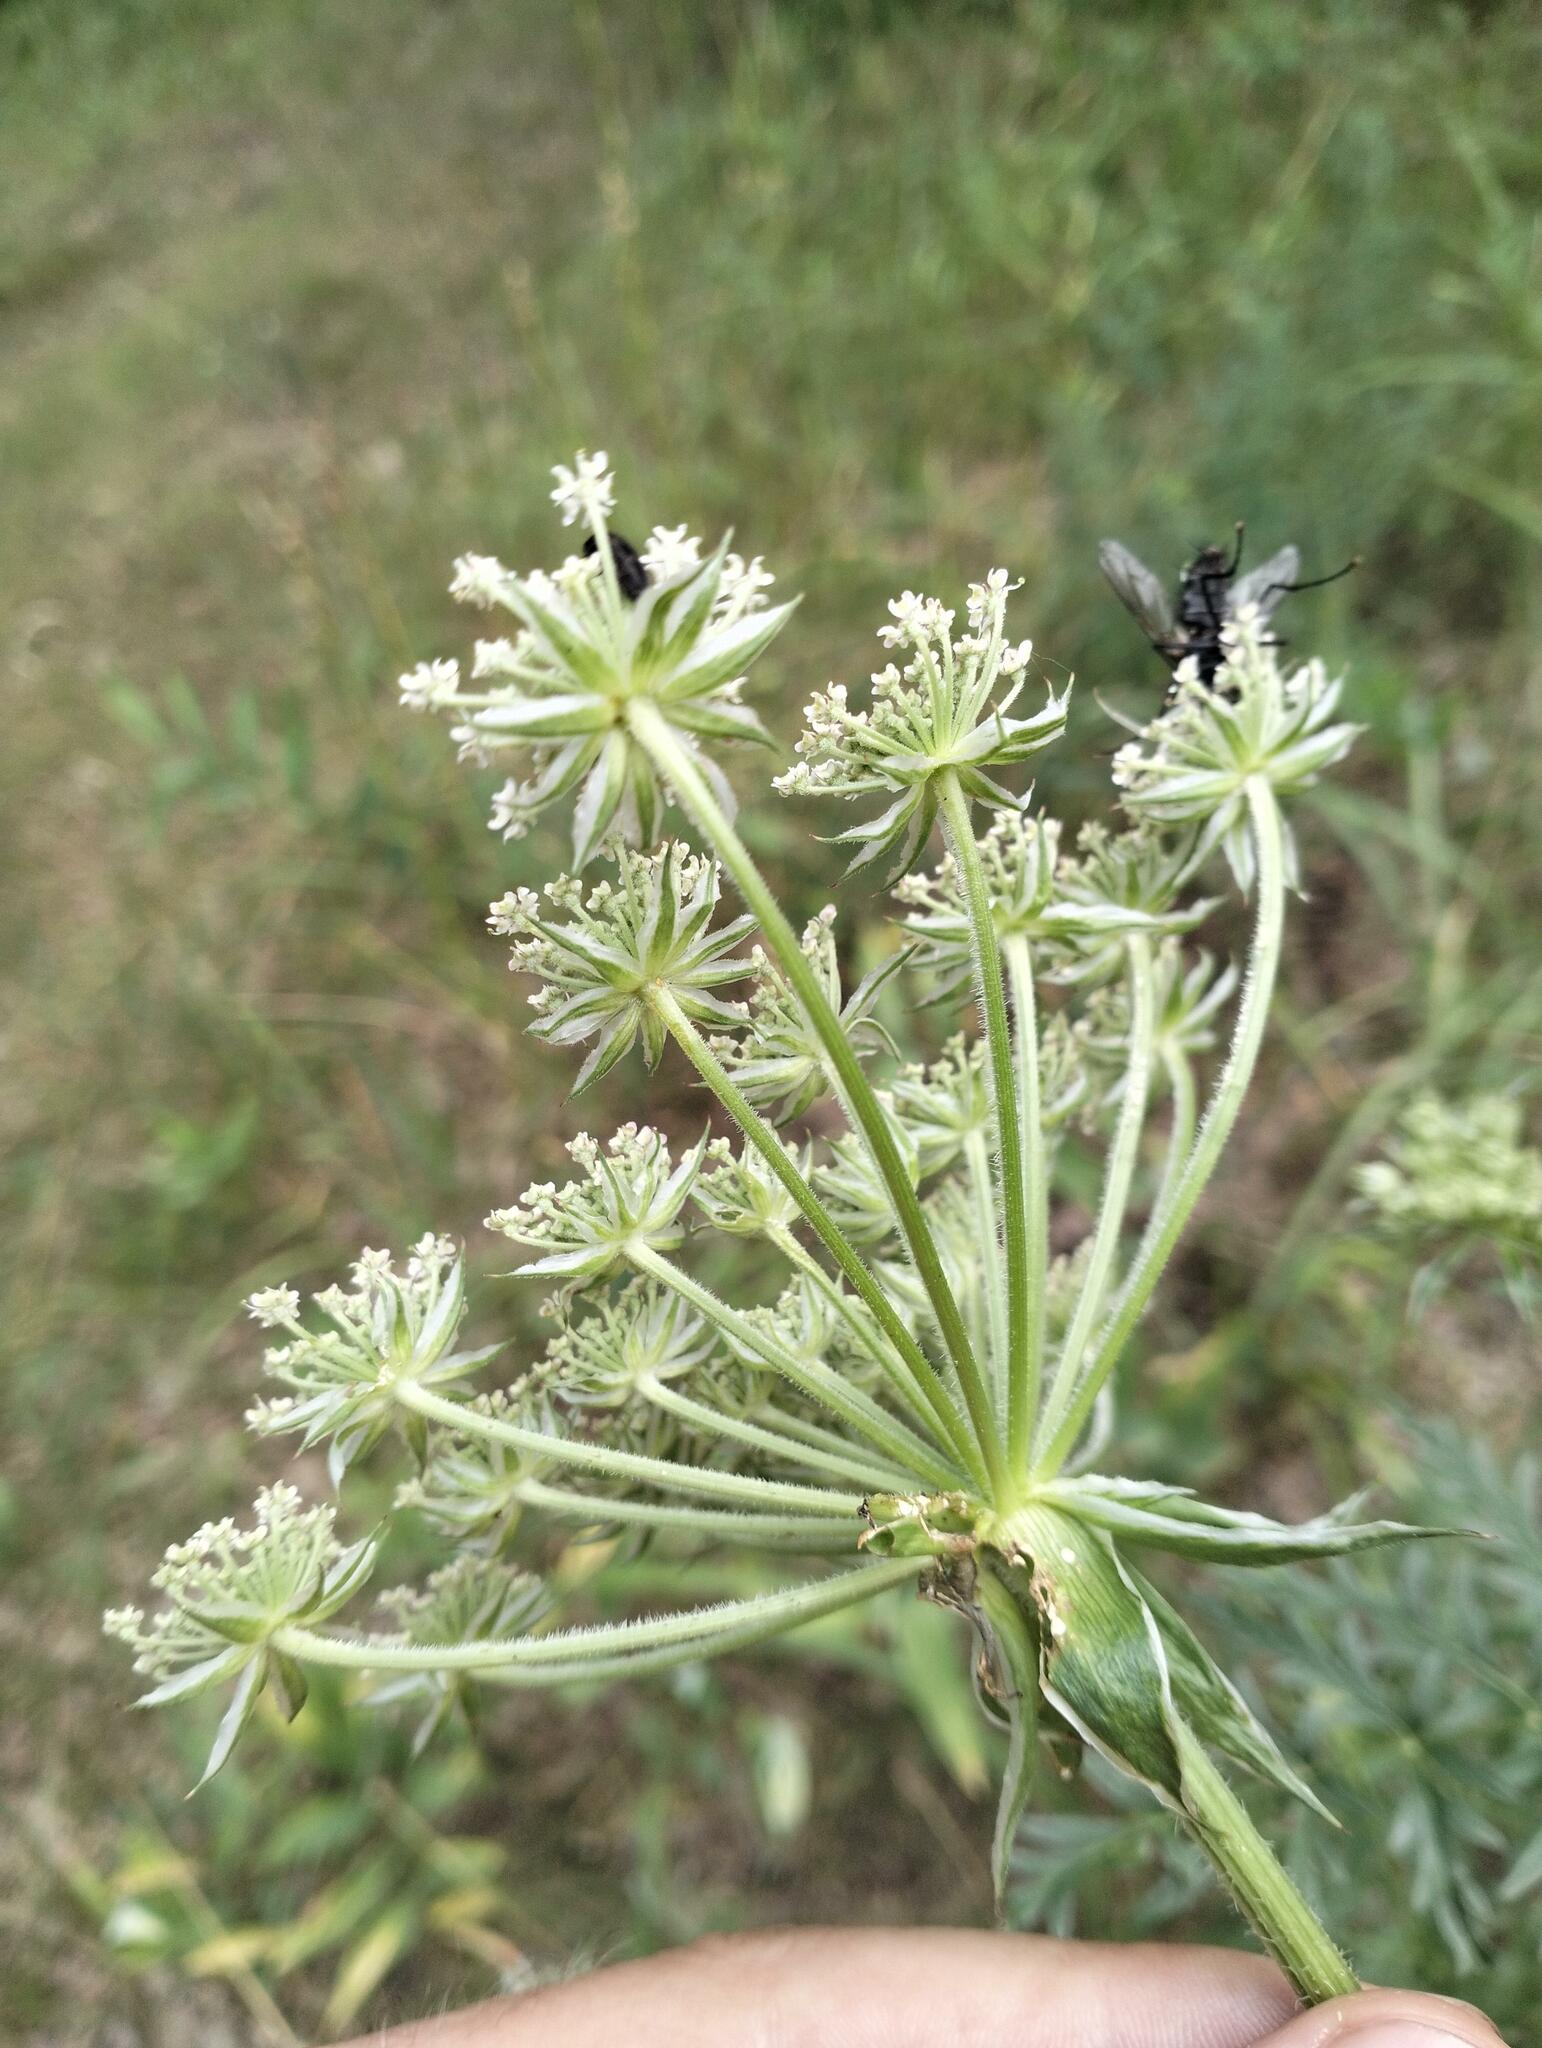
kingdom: Plantae
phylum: Tracheophyta
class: Magnoliopsida
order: Apiales
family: Apiaceae
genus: Silphiodaucus
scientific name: Silphiodaucus prutenicus
